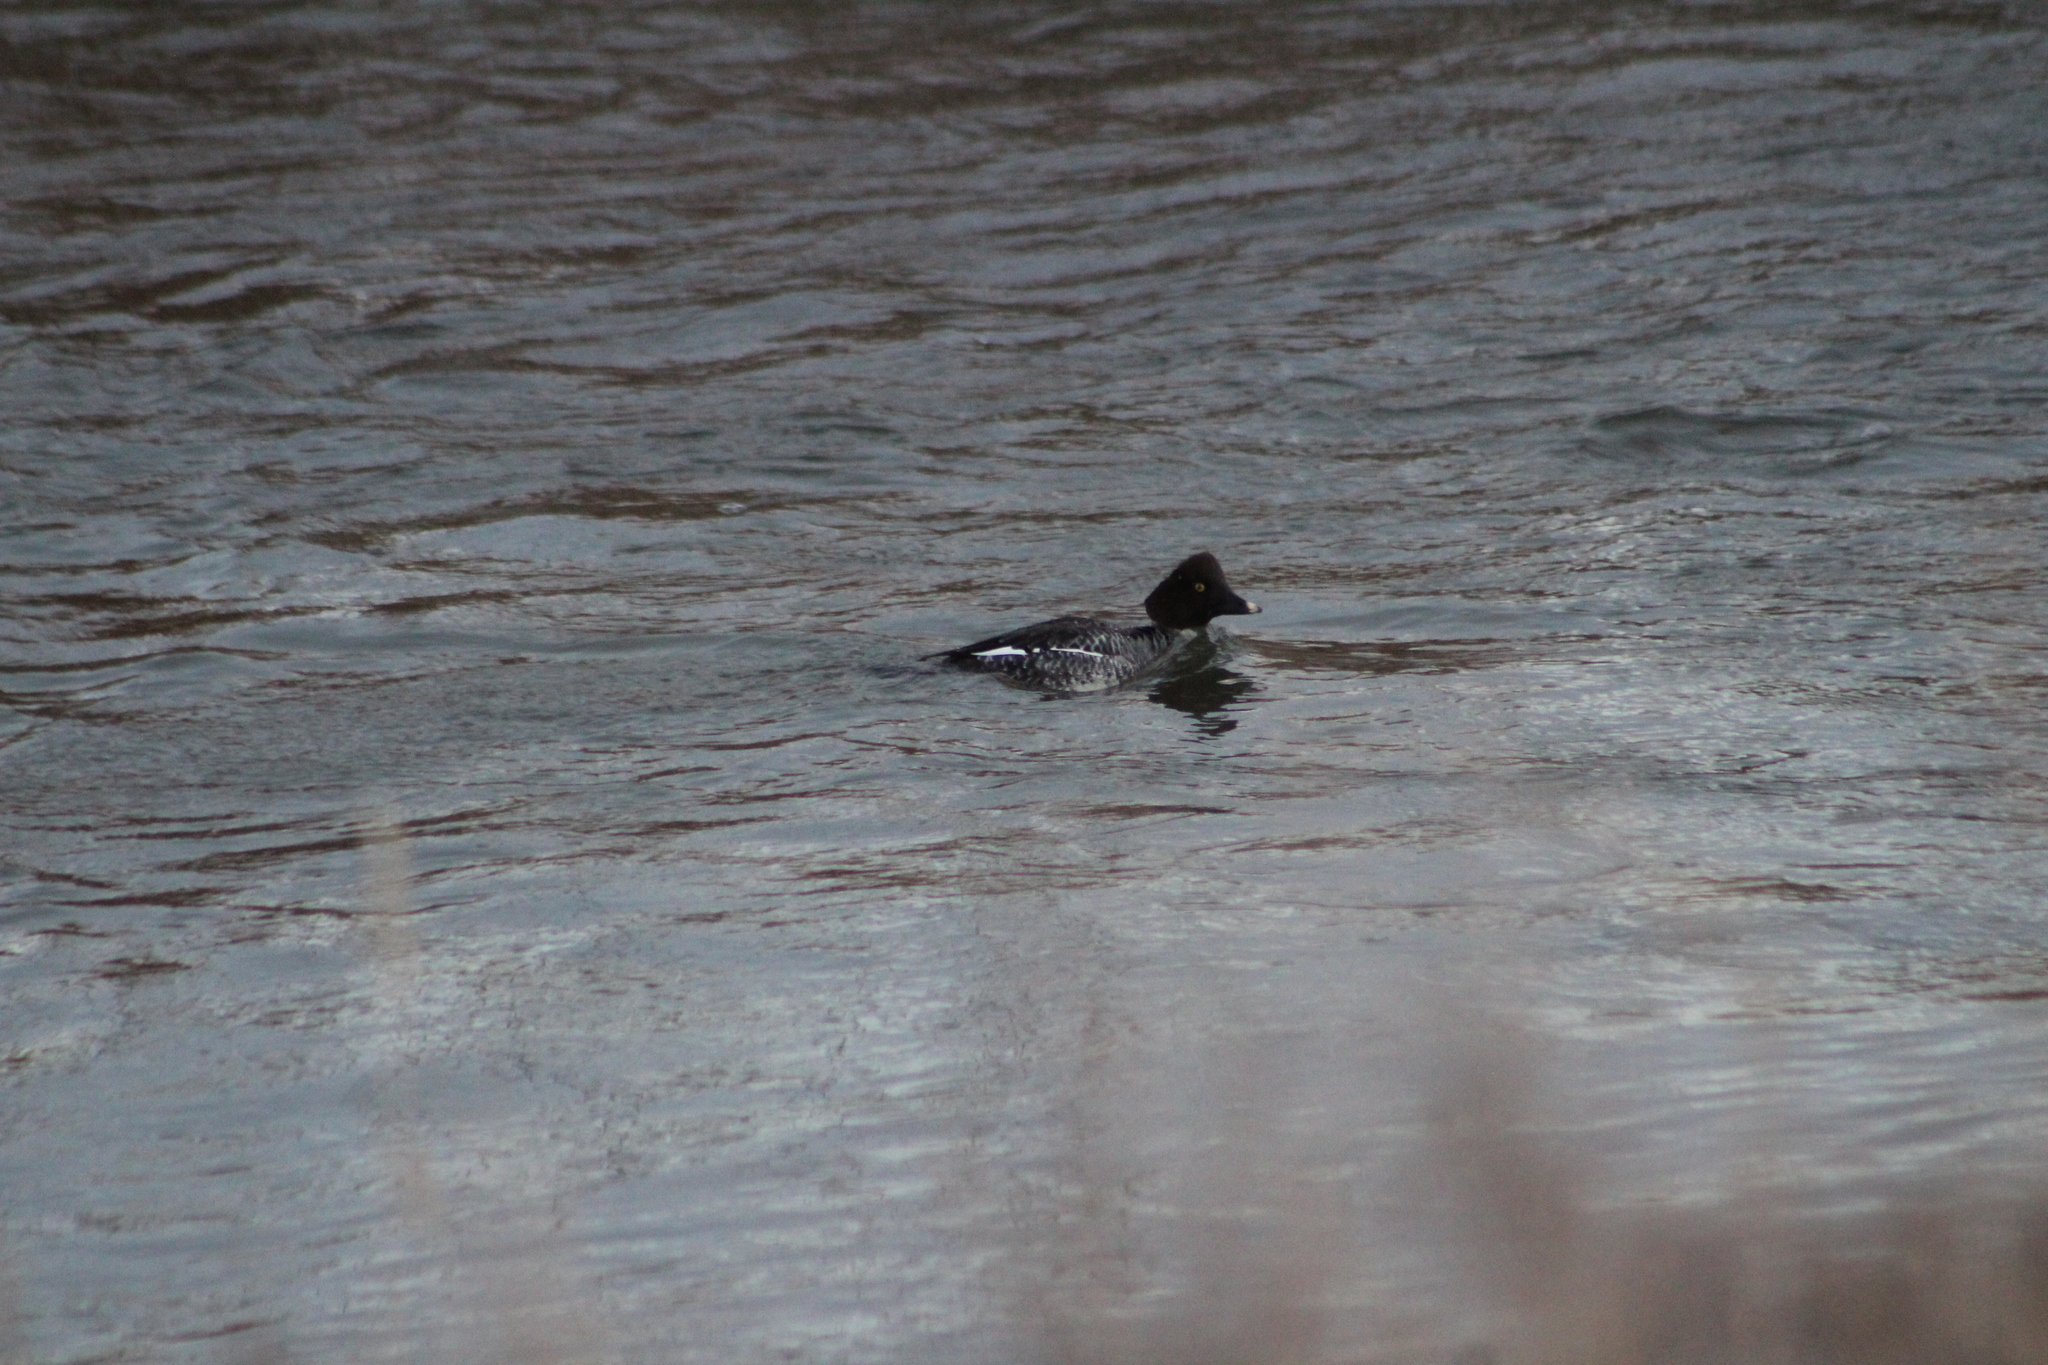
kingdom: Animalia
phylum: Chordata
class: Aves
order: Anseriformes
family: Anatidae
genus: Bucephala
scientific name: Bucephala clangula
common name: Common goldeneye
